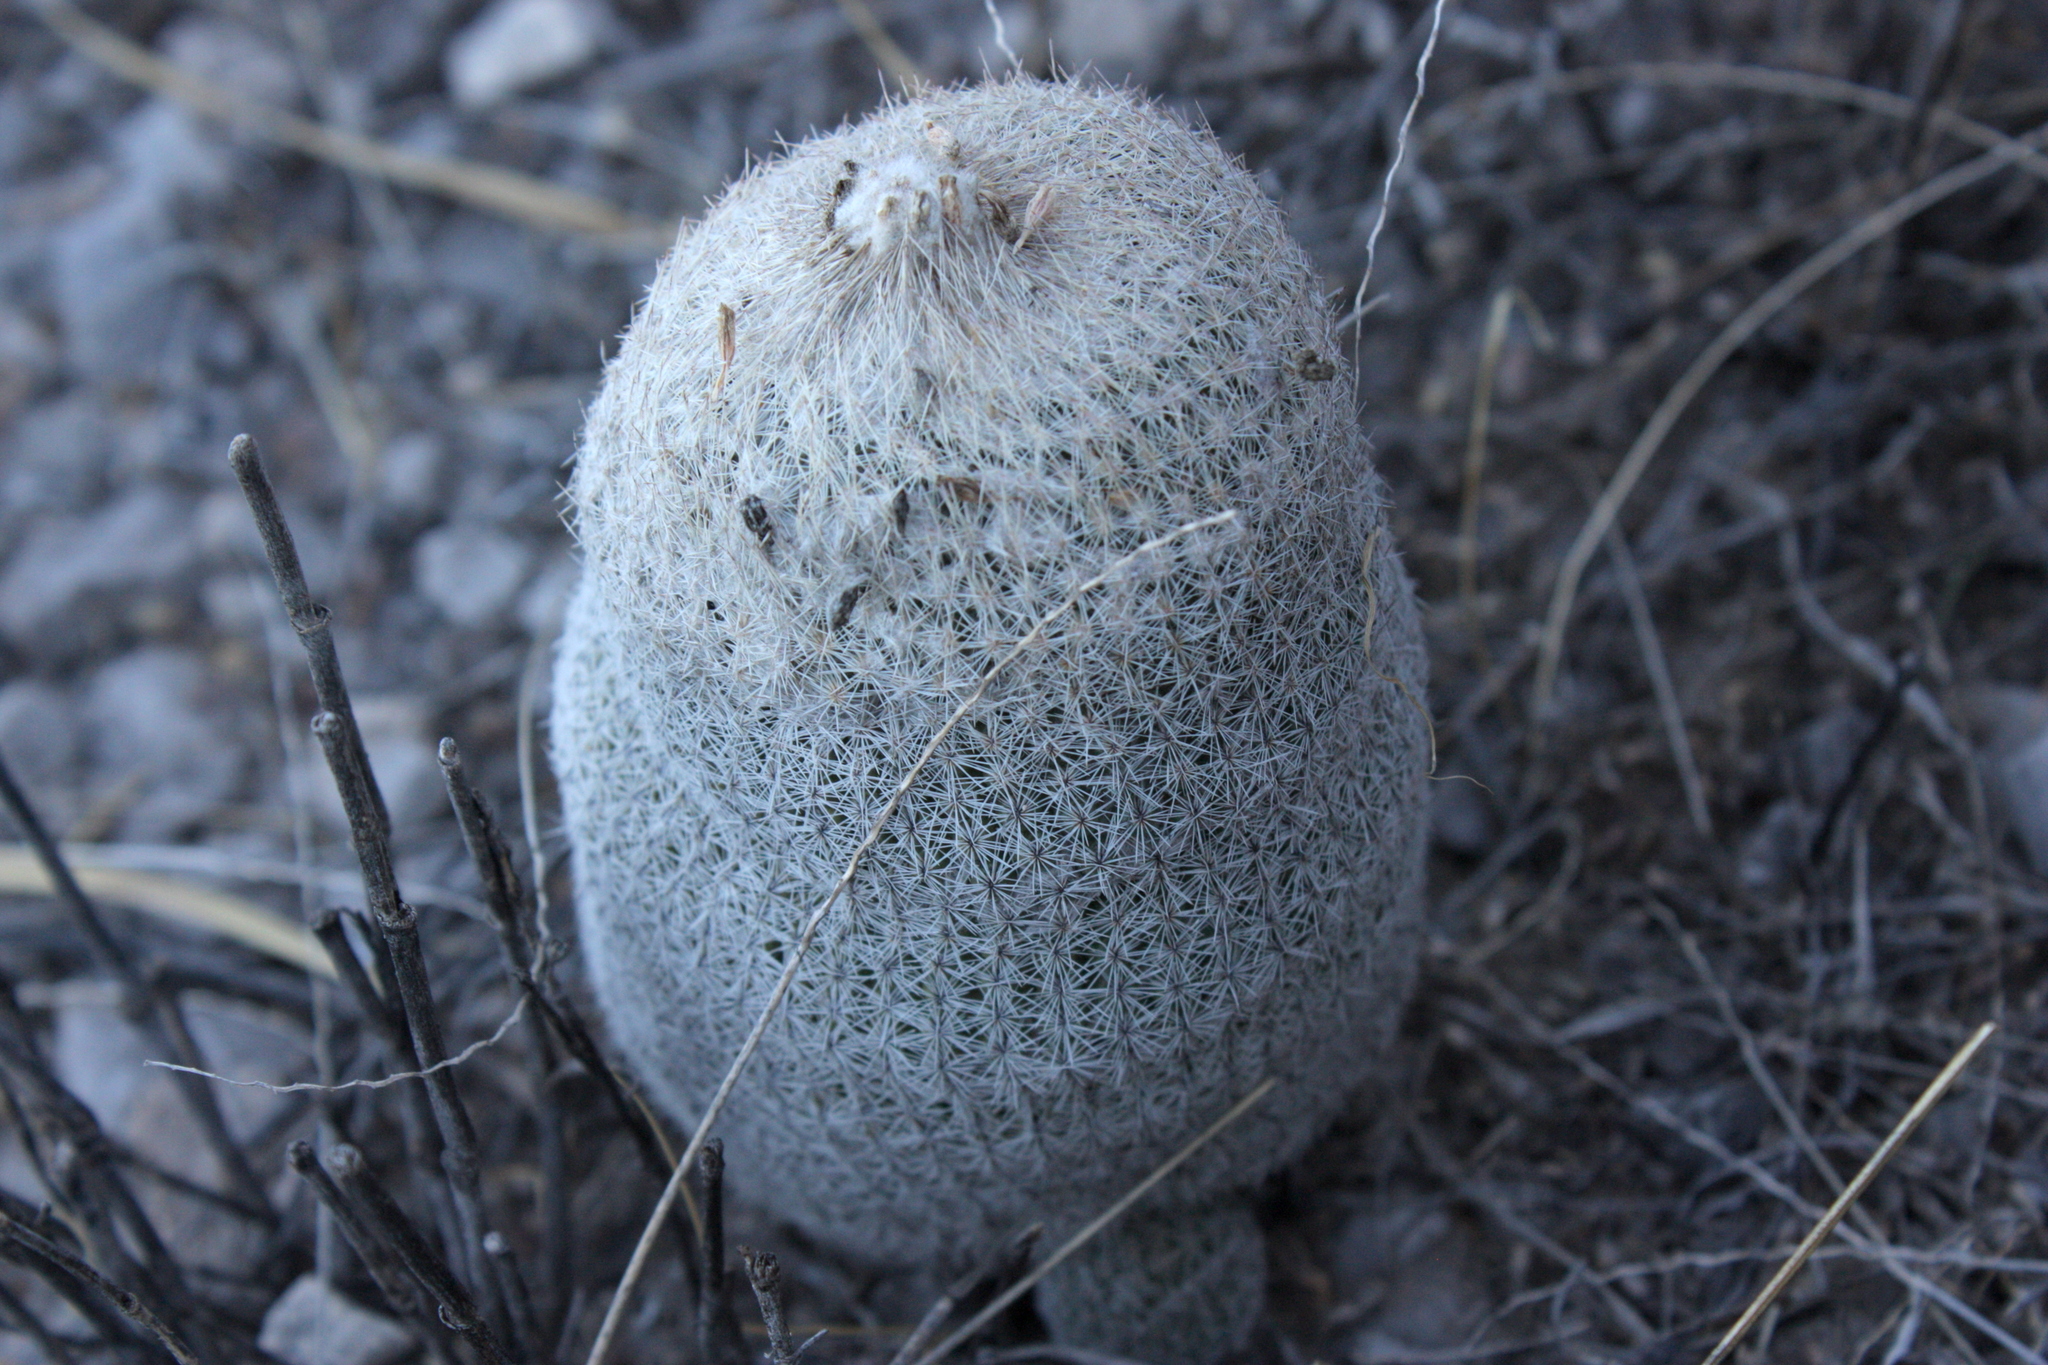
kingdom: Plantae
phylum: Tracheophyta
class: Magnoliopsida
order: Caryophyllales
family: Cactaceae
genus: Epithelantha
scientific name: Epithelantha greggii
